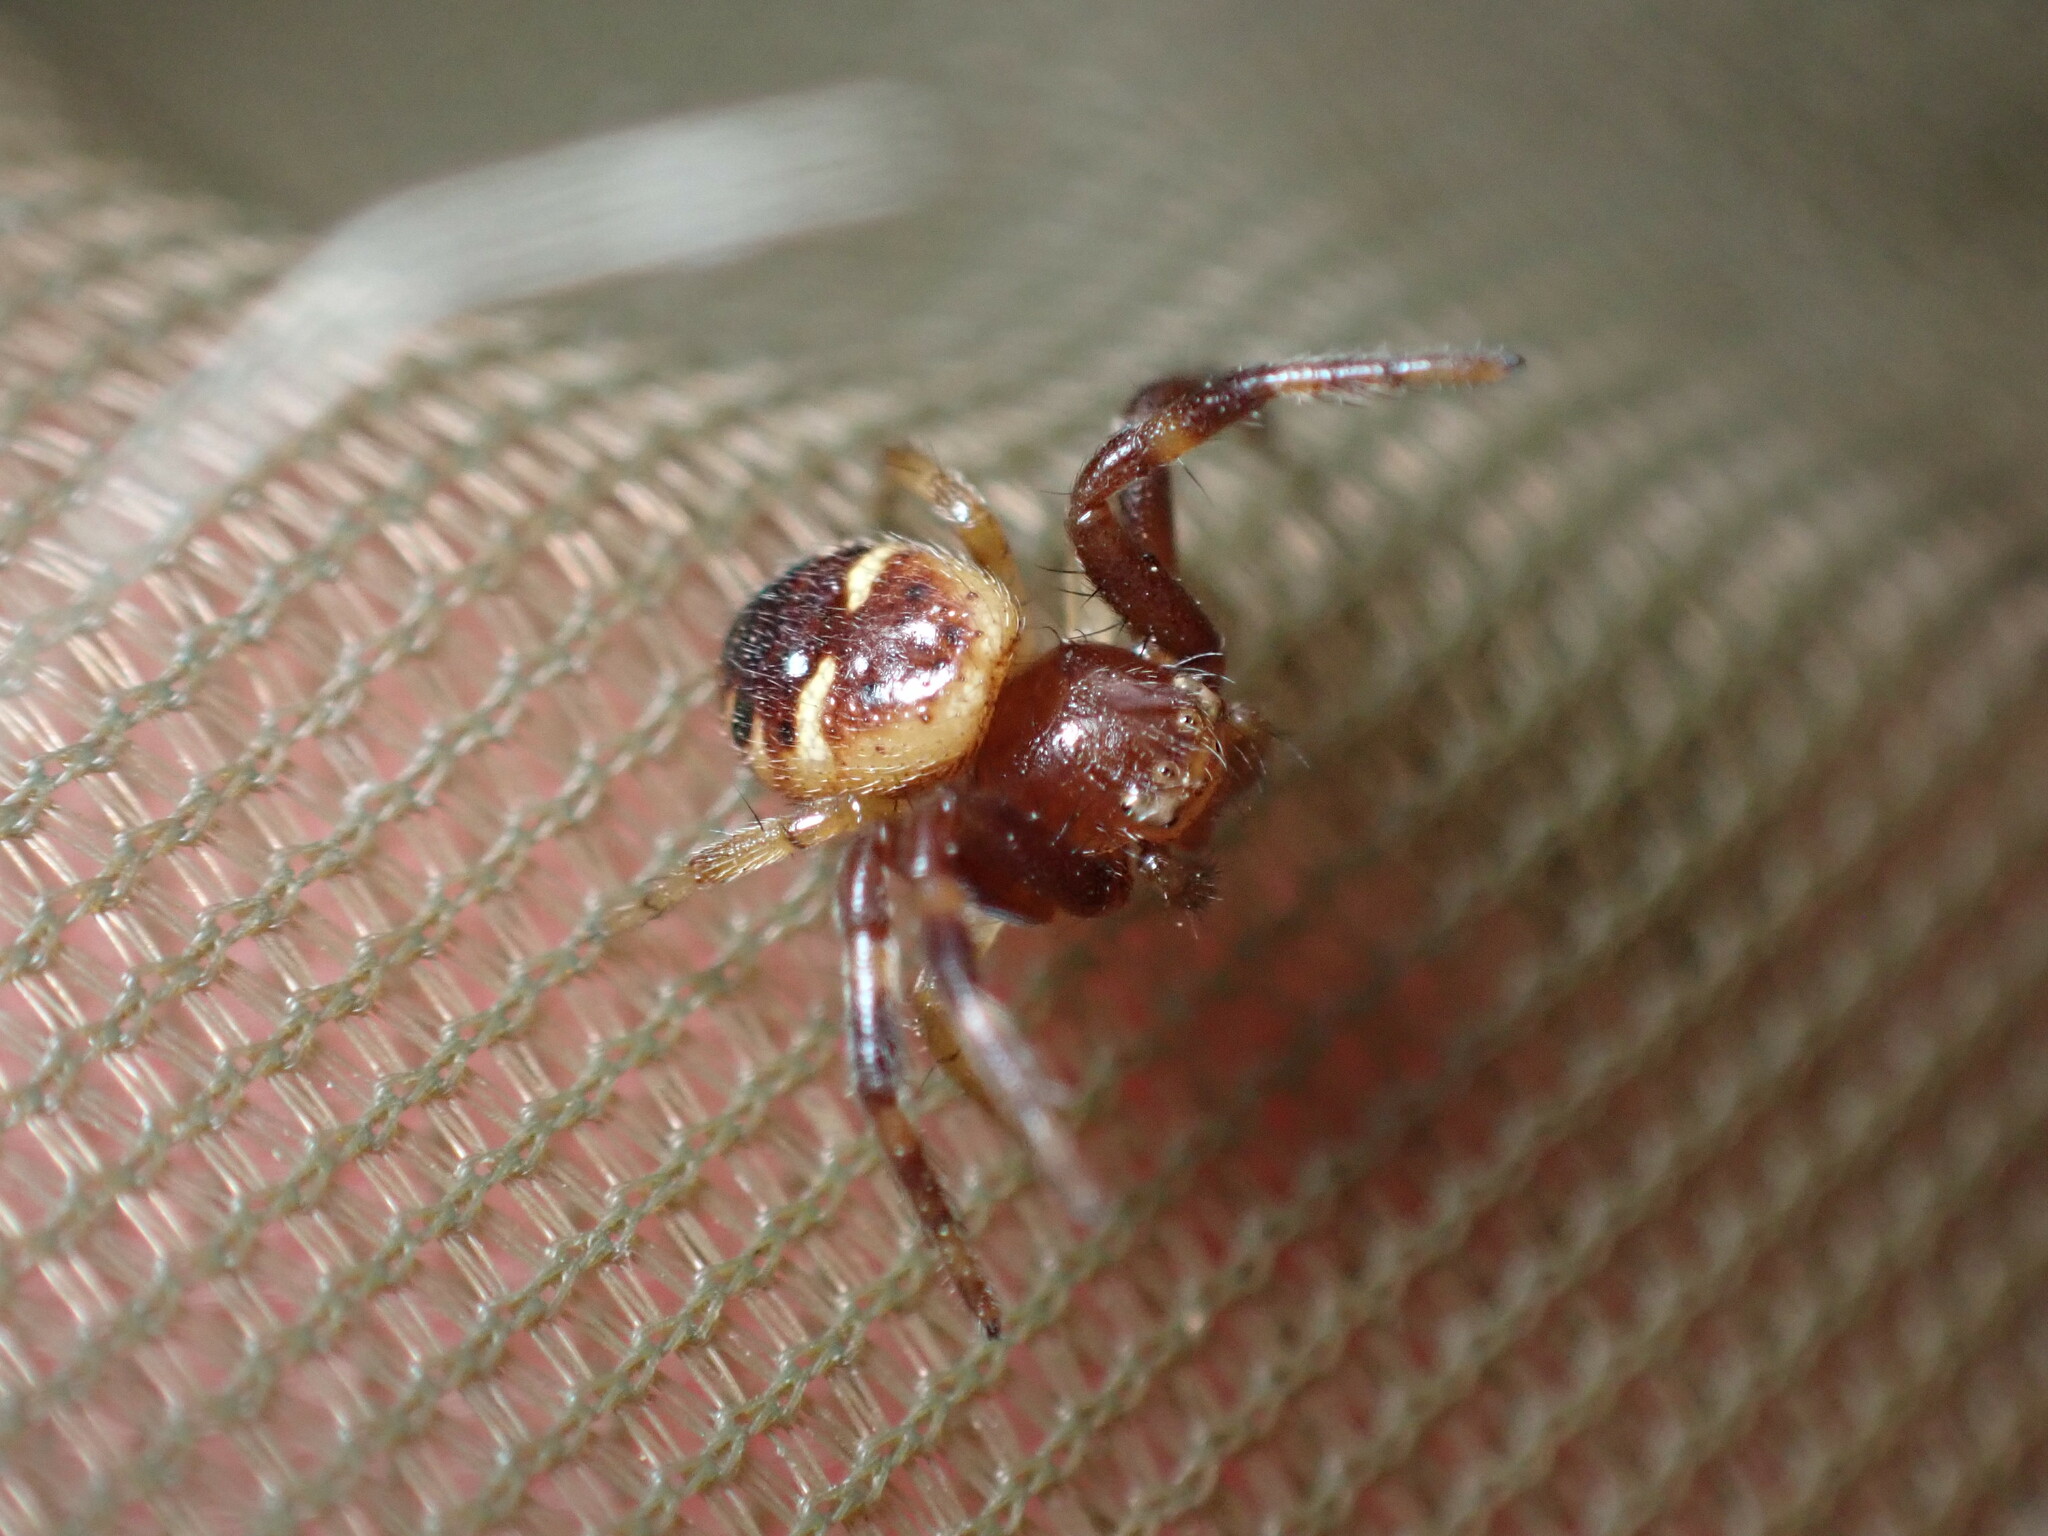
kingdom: Animalia
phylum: Arthropoda
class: Arachnida
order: Araneae
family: Thomisidae
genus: Synema
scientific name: Synema globosum
